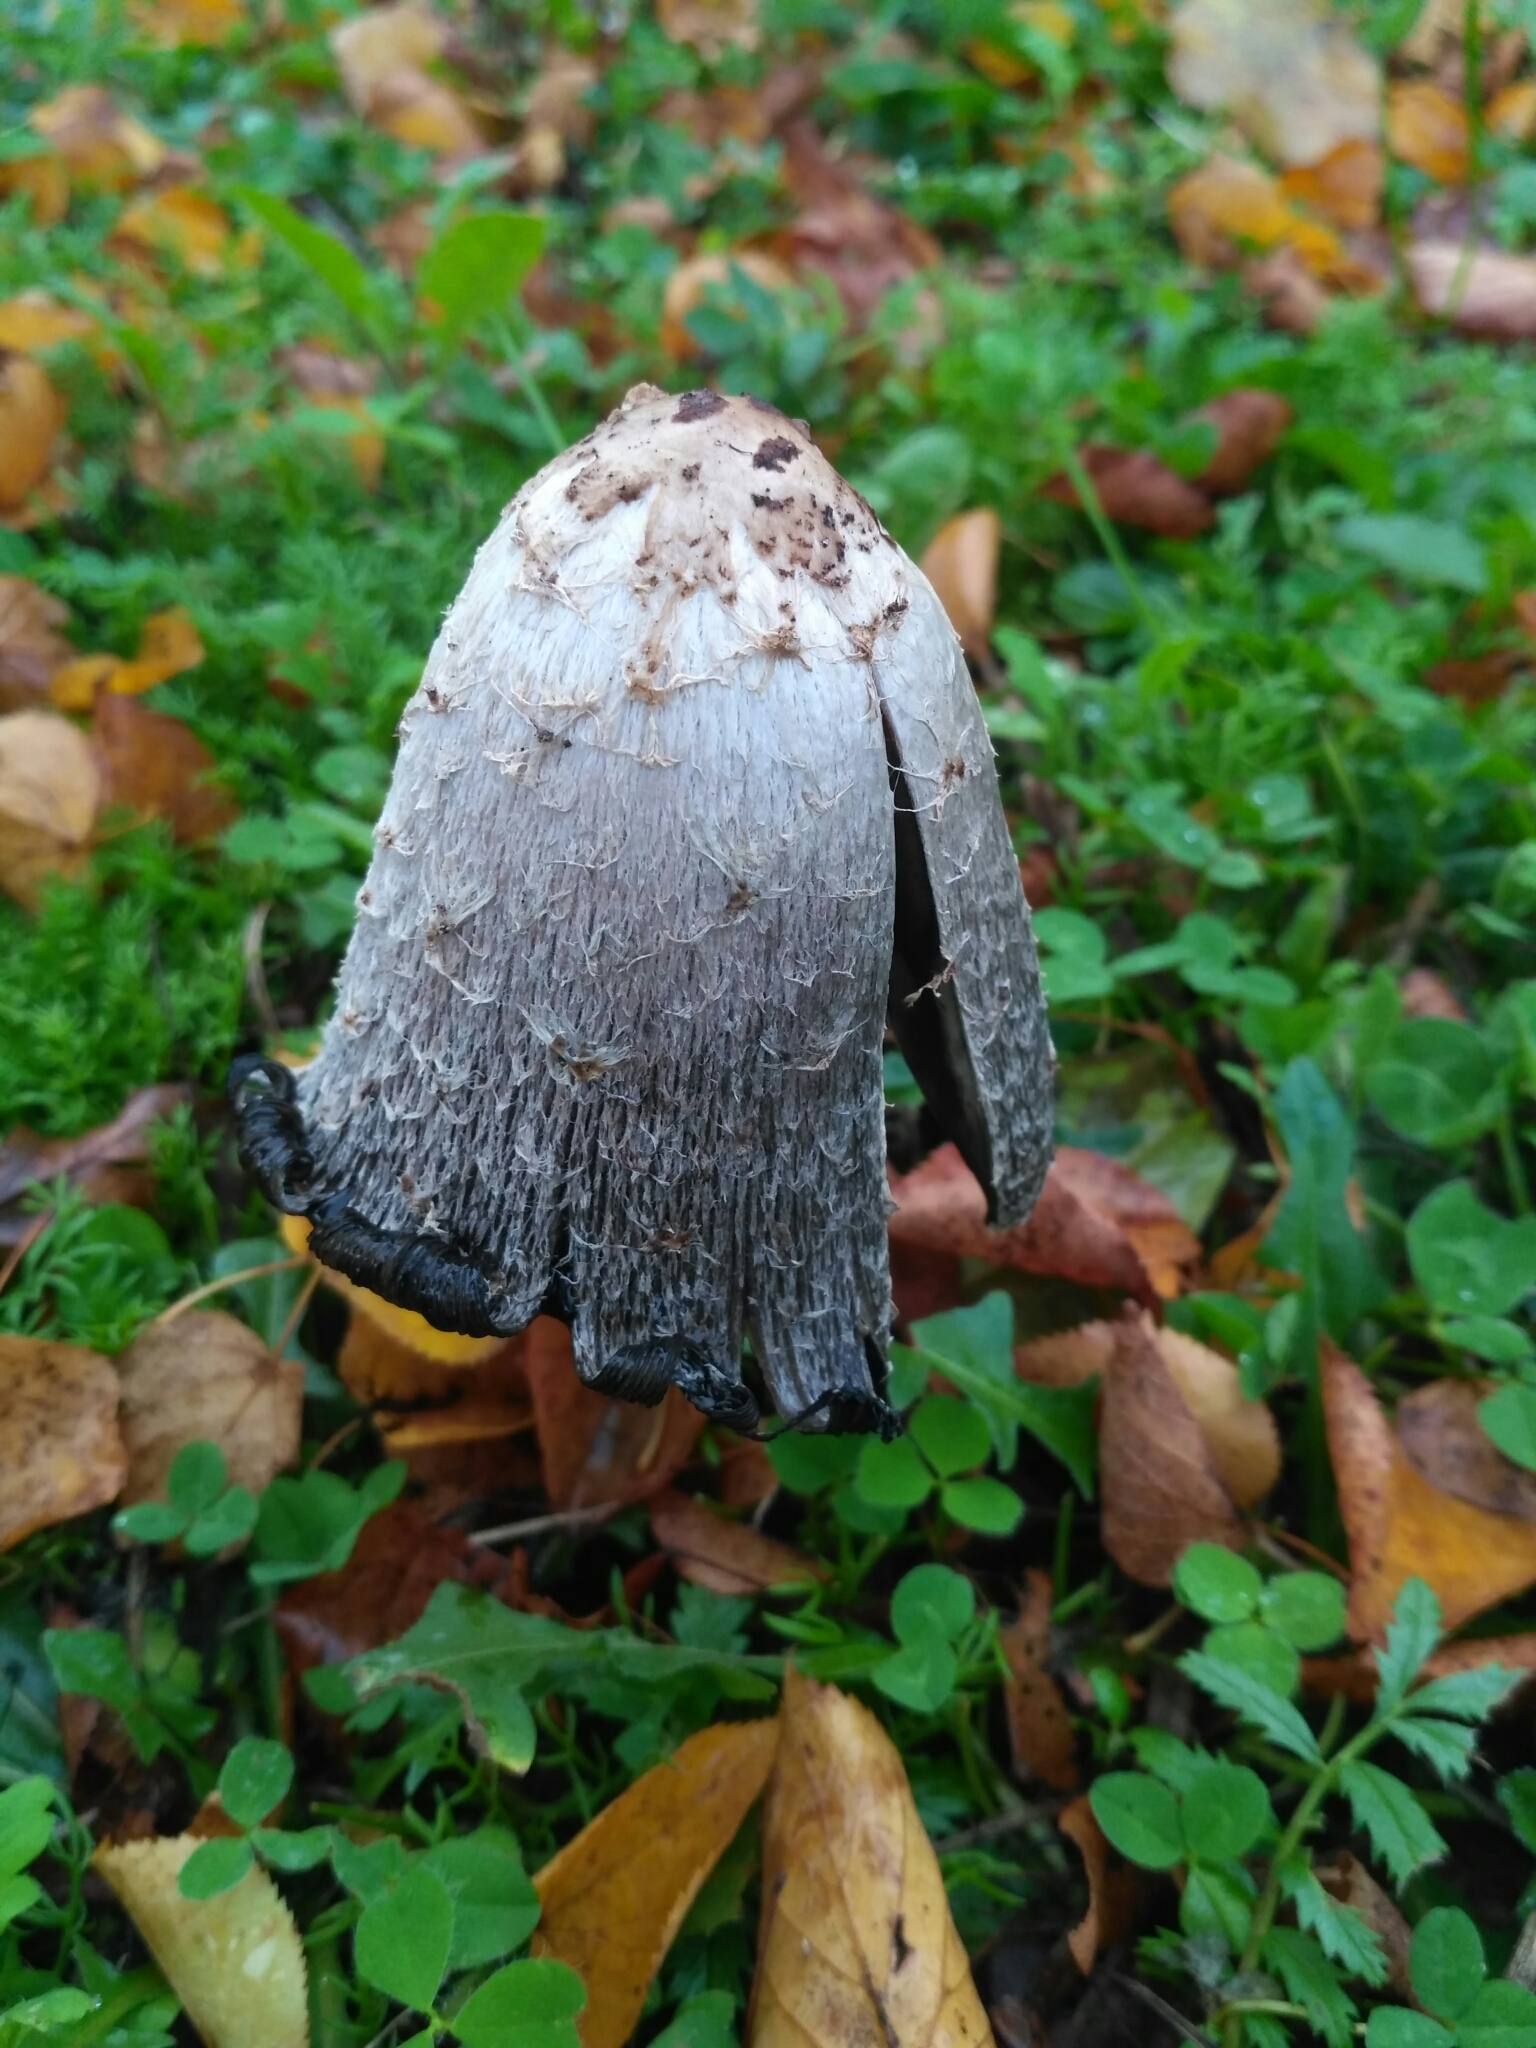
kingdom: Fungi
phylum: Basidiomycota
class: Agaricomycetes
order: Agaricales
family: Agaricaceae
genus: Coprinus
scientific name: Coprinus comatus
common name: Lawyer's wig
